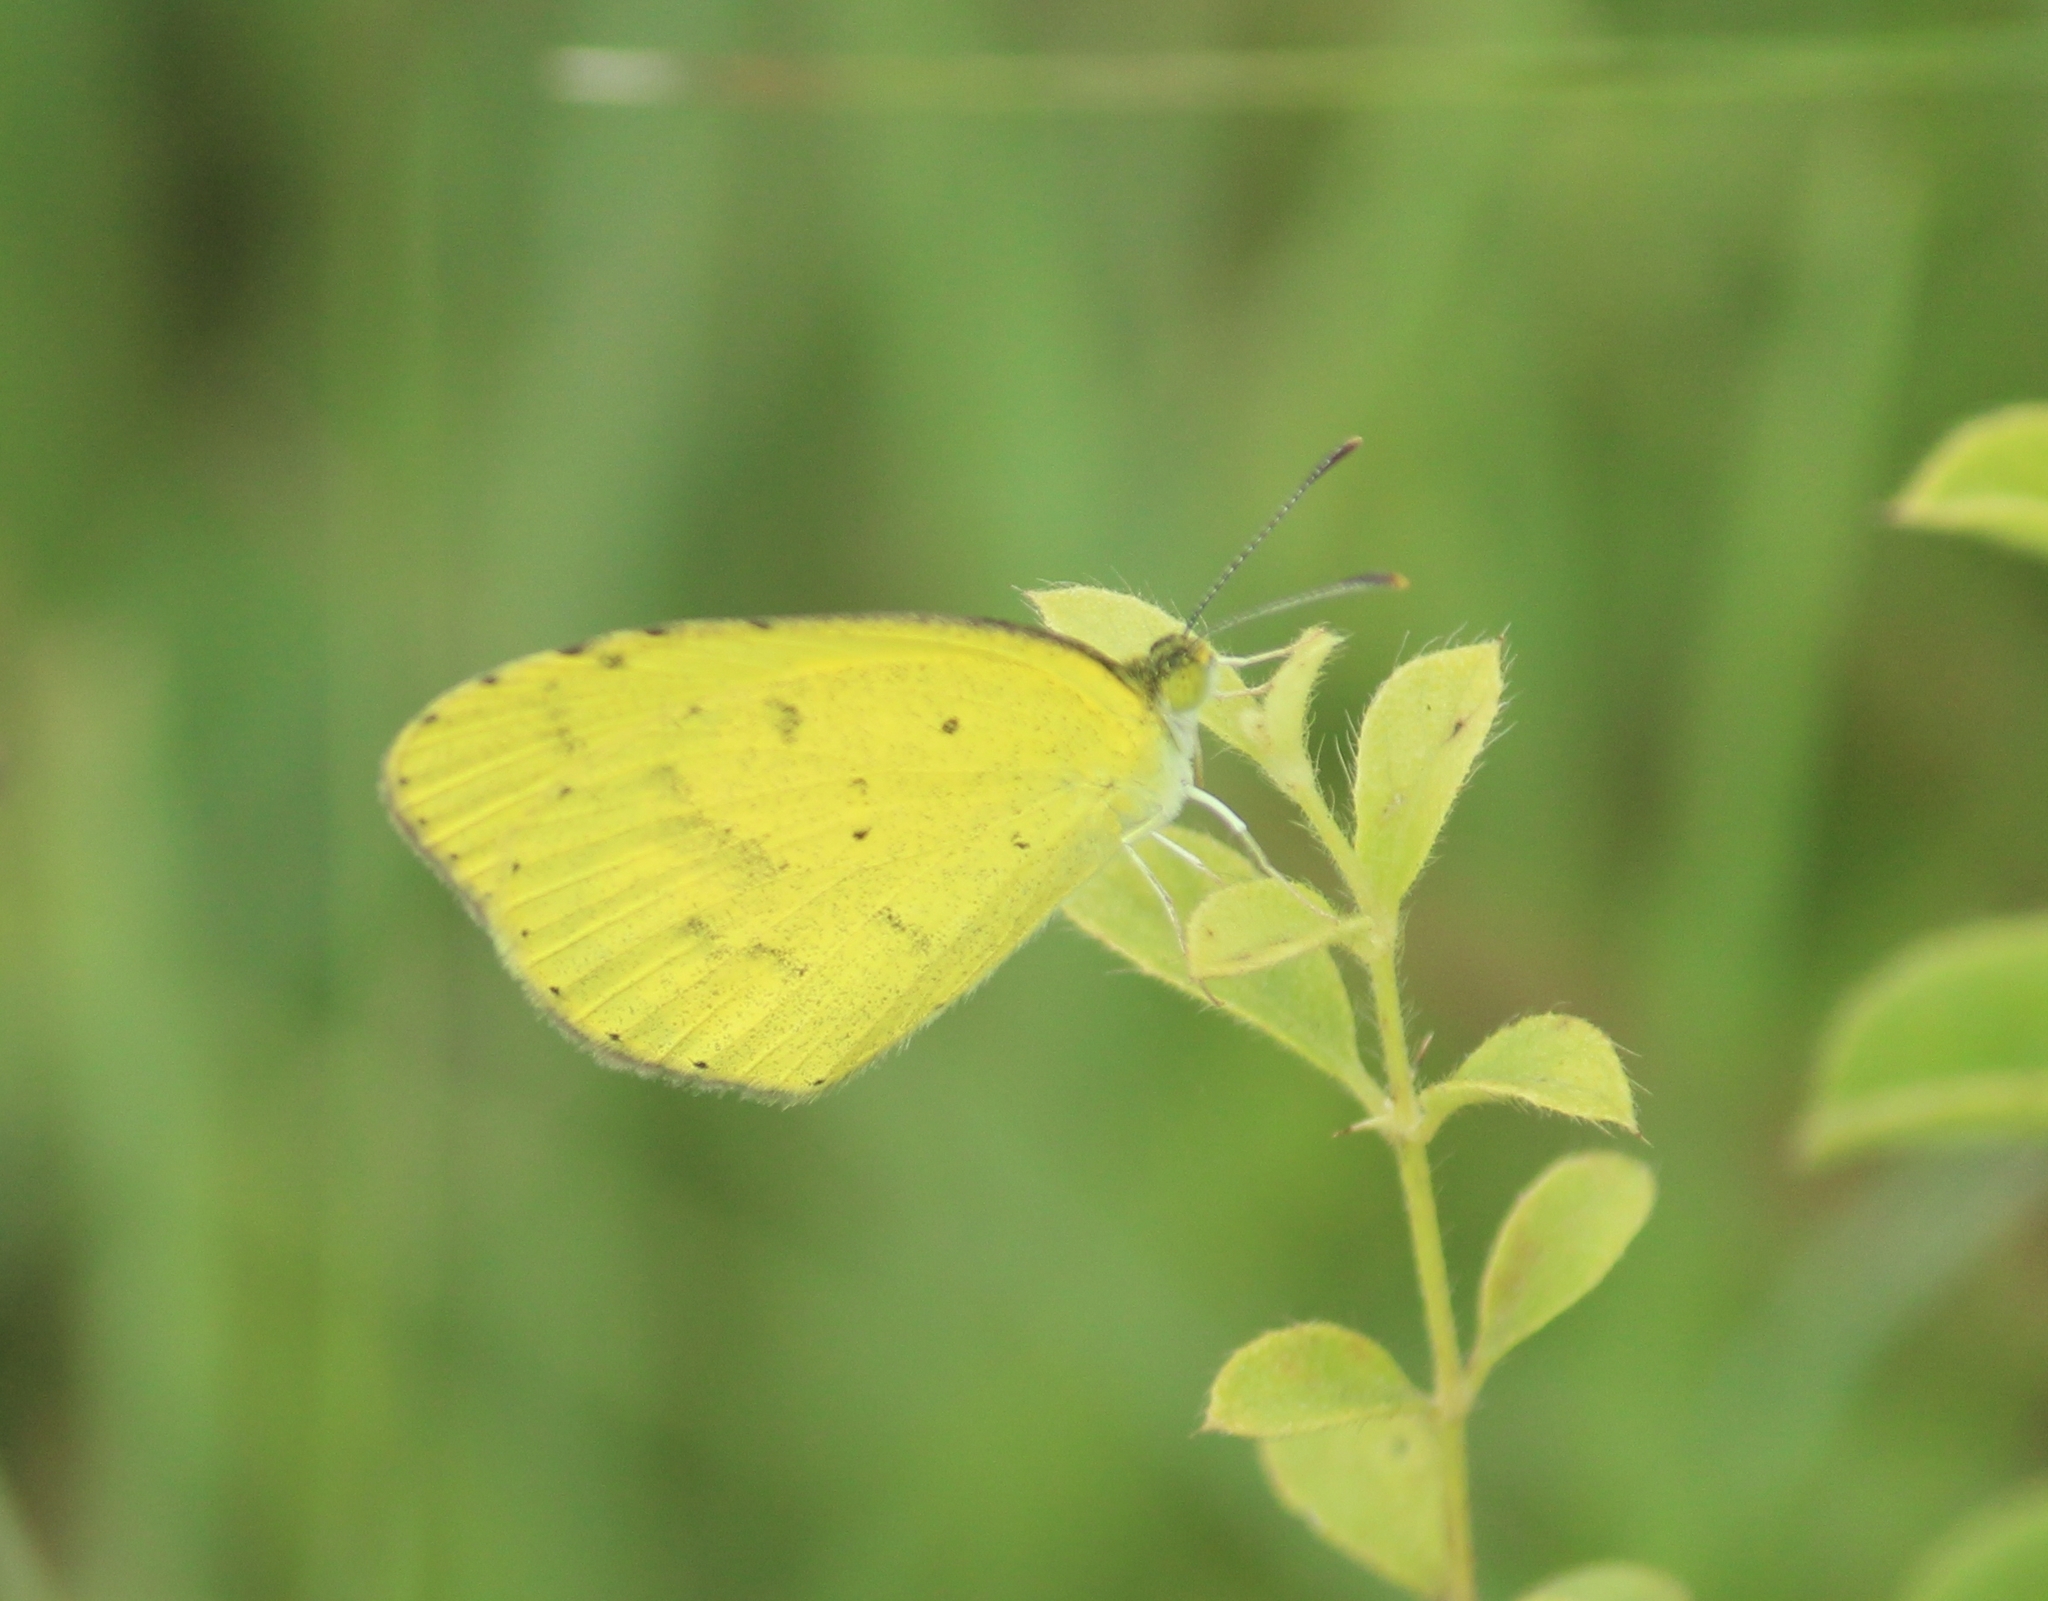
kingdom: Animalia
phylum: Arthropoda
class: Insecta
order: Lepidoptera
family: Pieridae
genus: Eurema
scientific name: Eurema brigitta
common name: Small grass yellow
